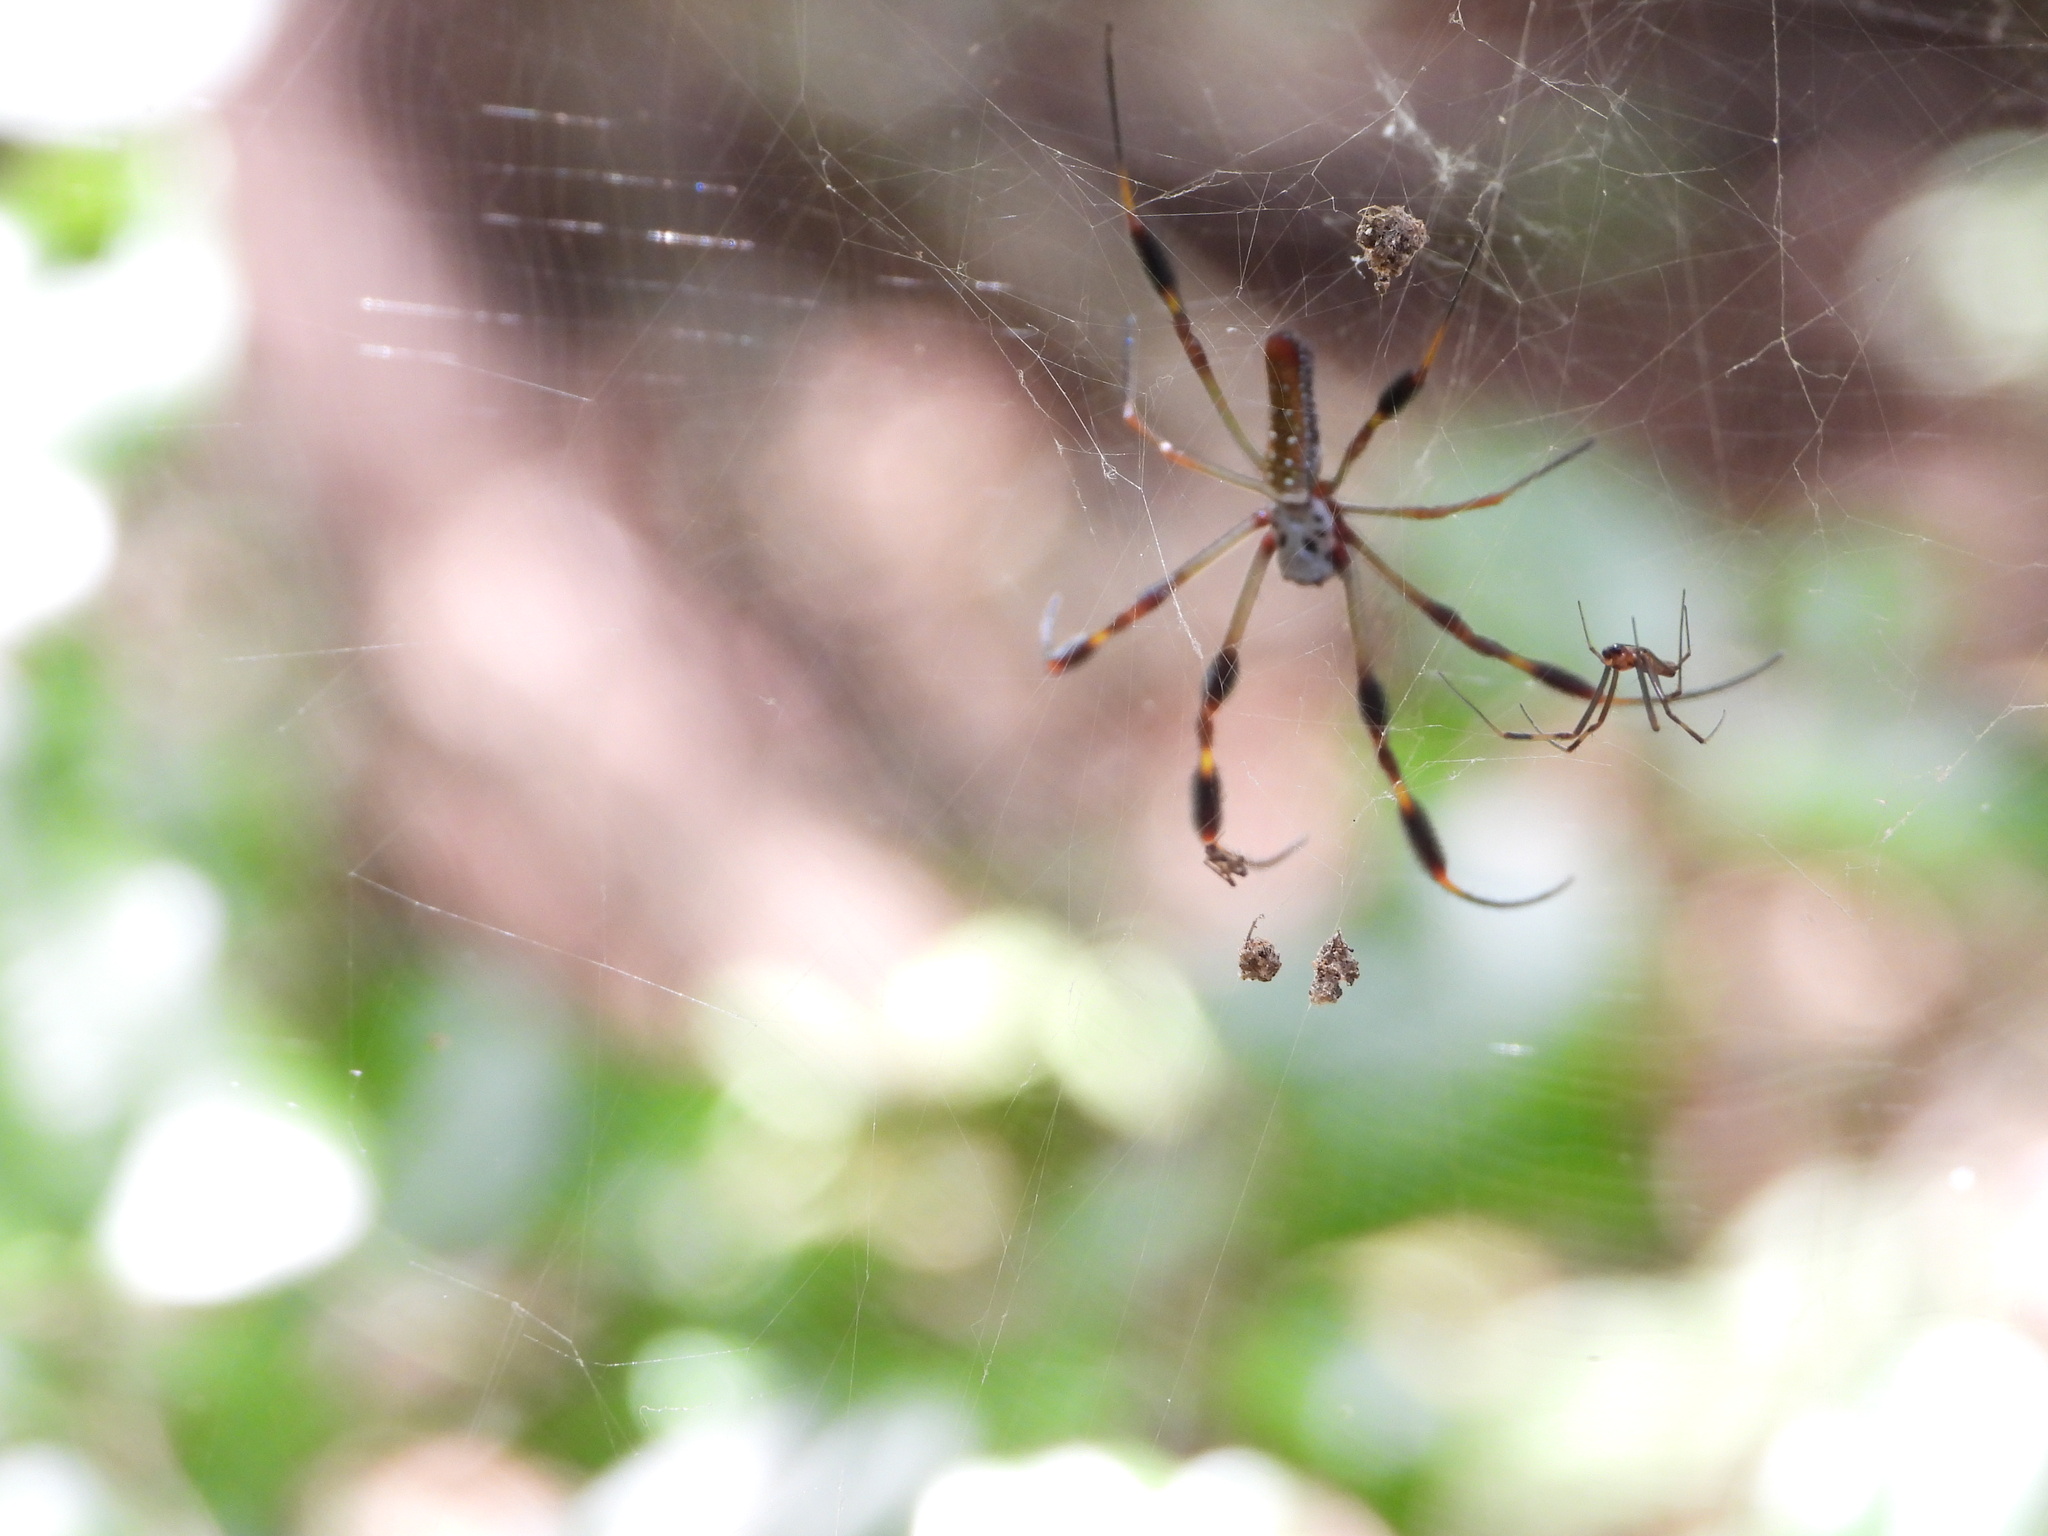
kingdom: Animalia
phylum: Arthropoda
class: Arachnida
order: Araneae
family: Araneidae
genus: Trichonephila
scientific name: Trichonephila clavipes
